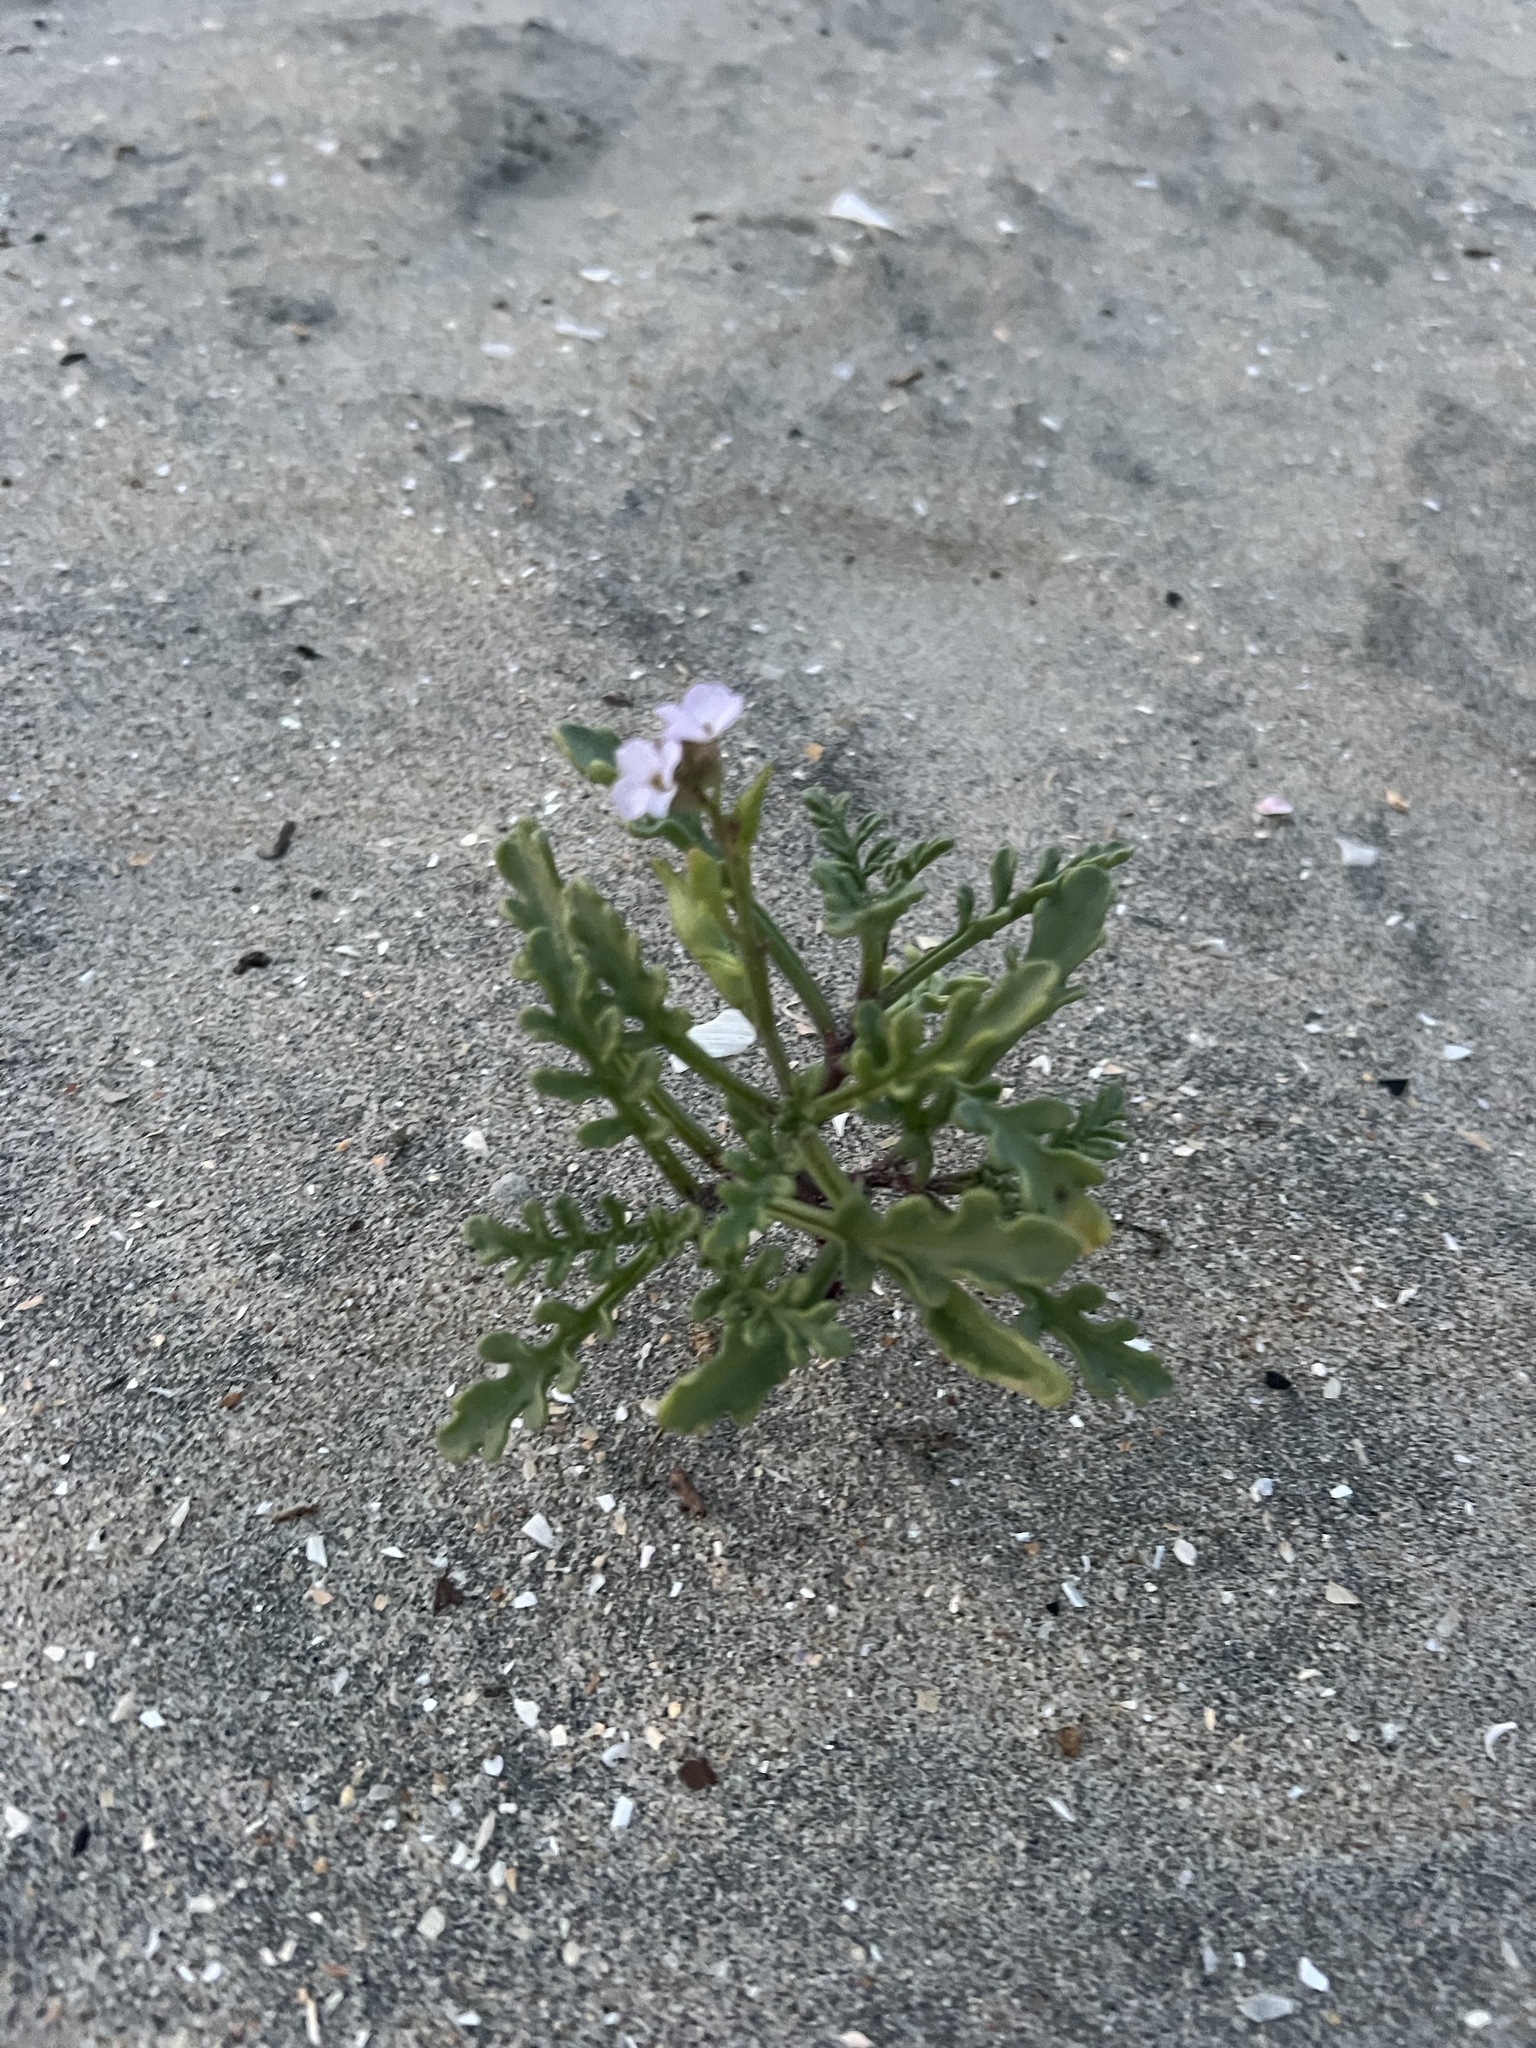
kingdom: Plantae
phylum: Tracheophyta
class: Magnoliopsida
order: Brassicales
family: Brassicaceae
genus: Cakile
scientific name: Cakile maritima
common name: Sea rocket
